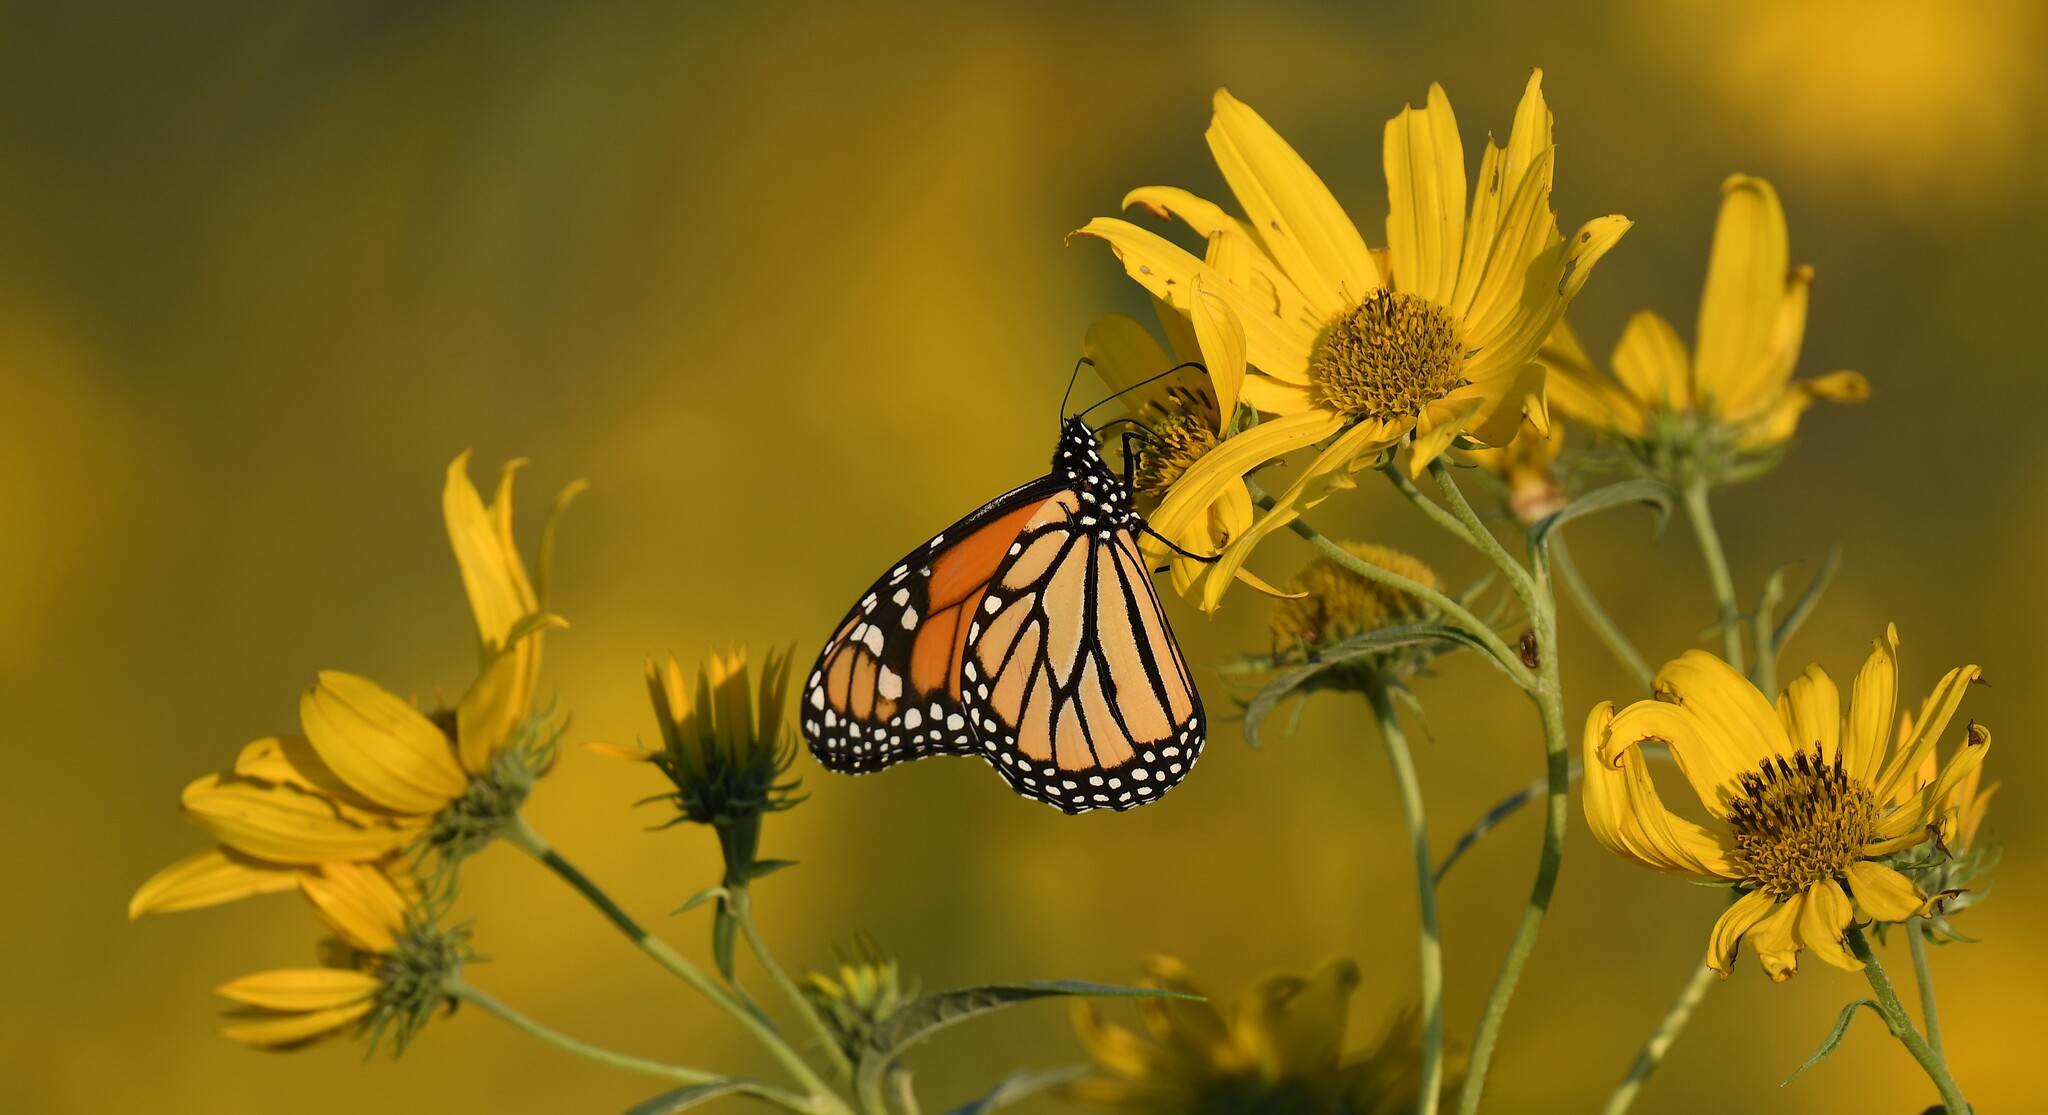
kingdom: Animalia
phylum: Arthropoda
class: Insecta
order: Lepidoptera
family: Nymphalidae
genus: Danaus
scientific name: Danaus plexippus
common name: Monarch
